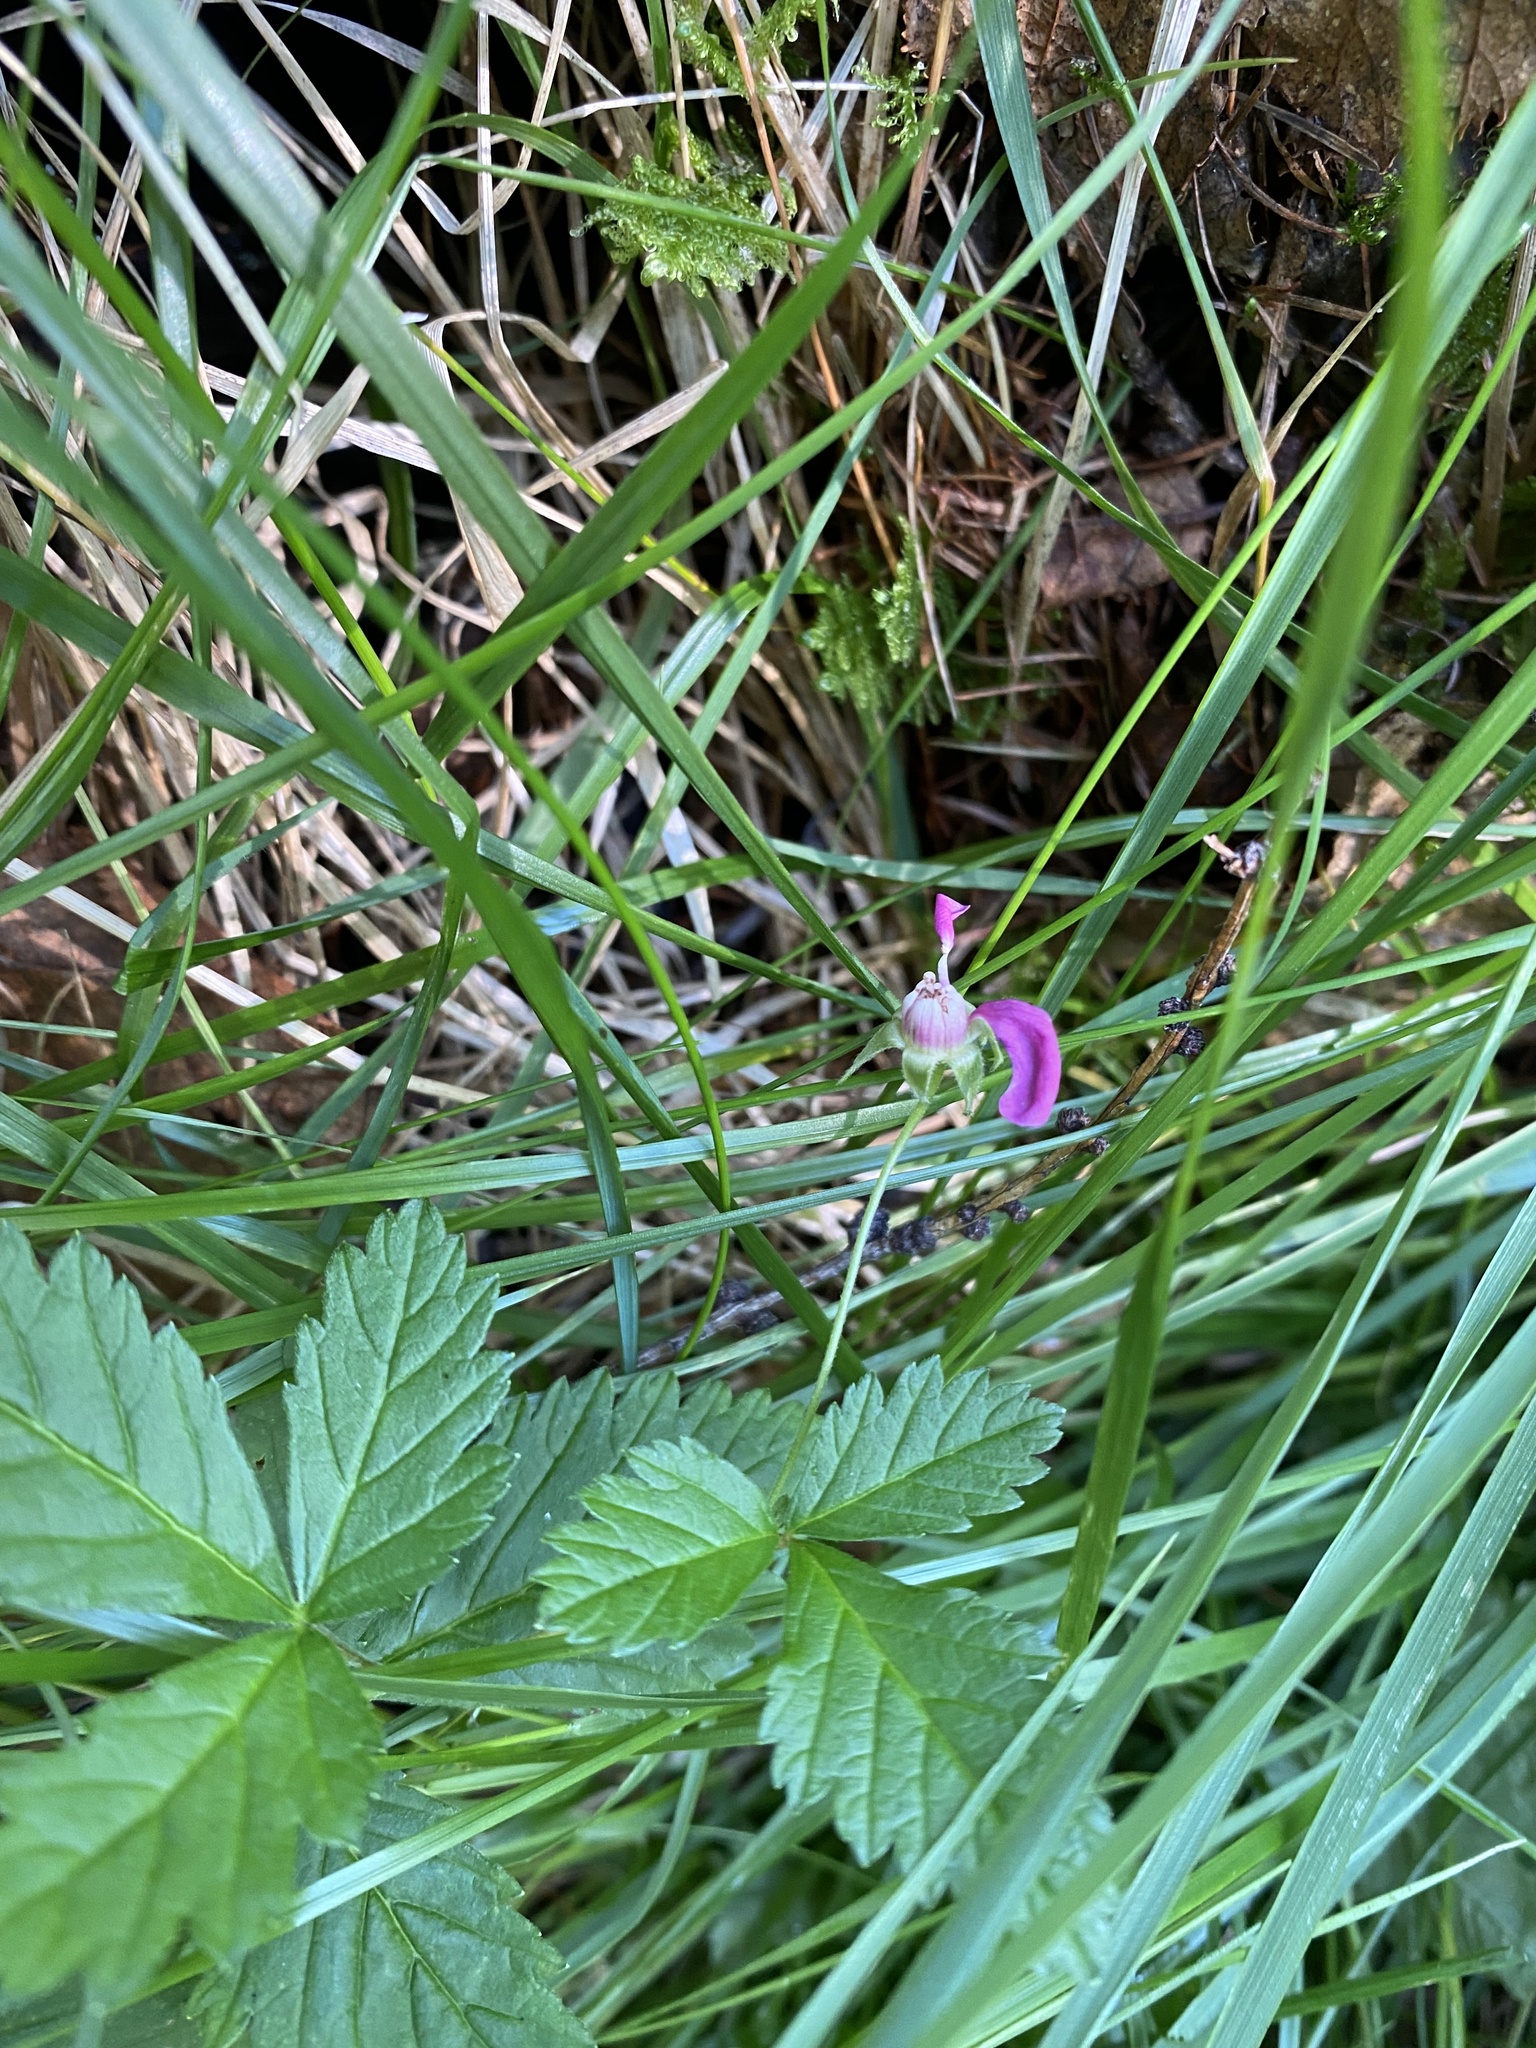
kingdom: Plantae
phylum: Tracheophyta
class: Magnoliopsida
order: Rosales
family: Rosaceae
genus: Rubus
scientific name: Rubus arcticus
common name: Arctic bramble
